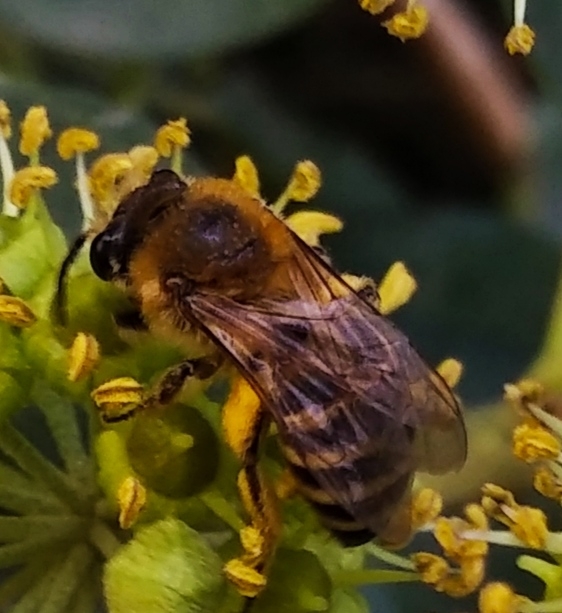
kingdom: Animalia
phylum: Arthropoda
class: Insecta
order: Hymenoptera
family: Colletidae
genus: Colletes
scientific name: Colletes hederae
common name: Ivy bee
